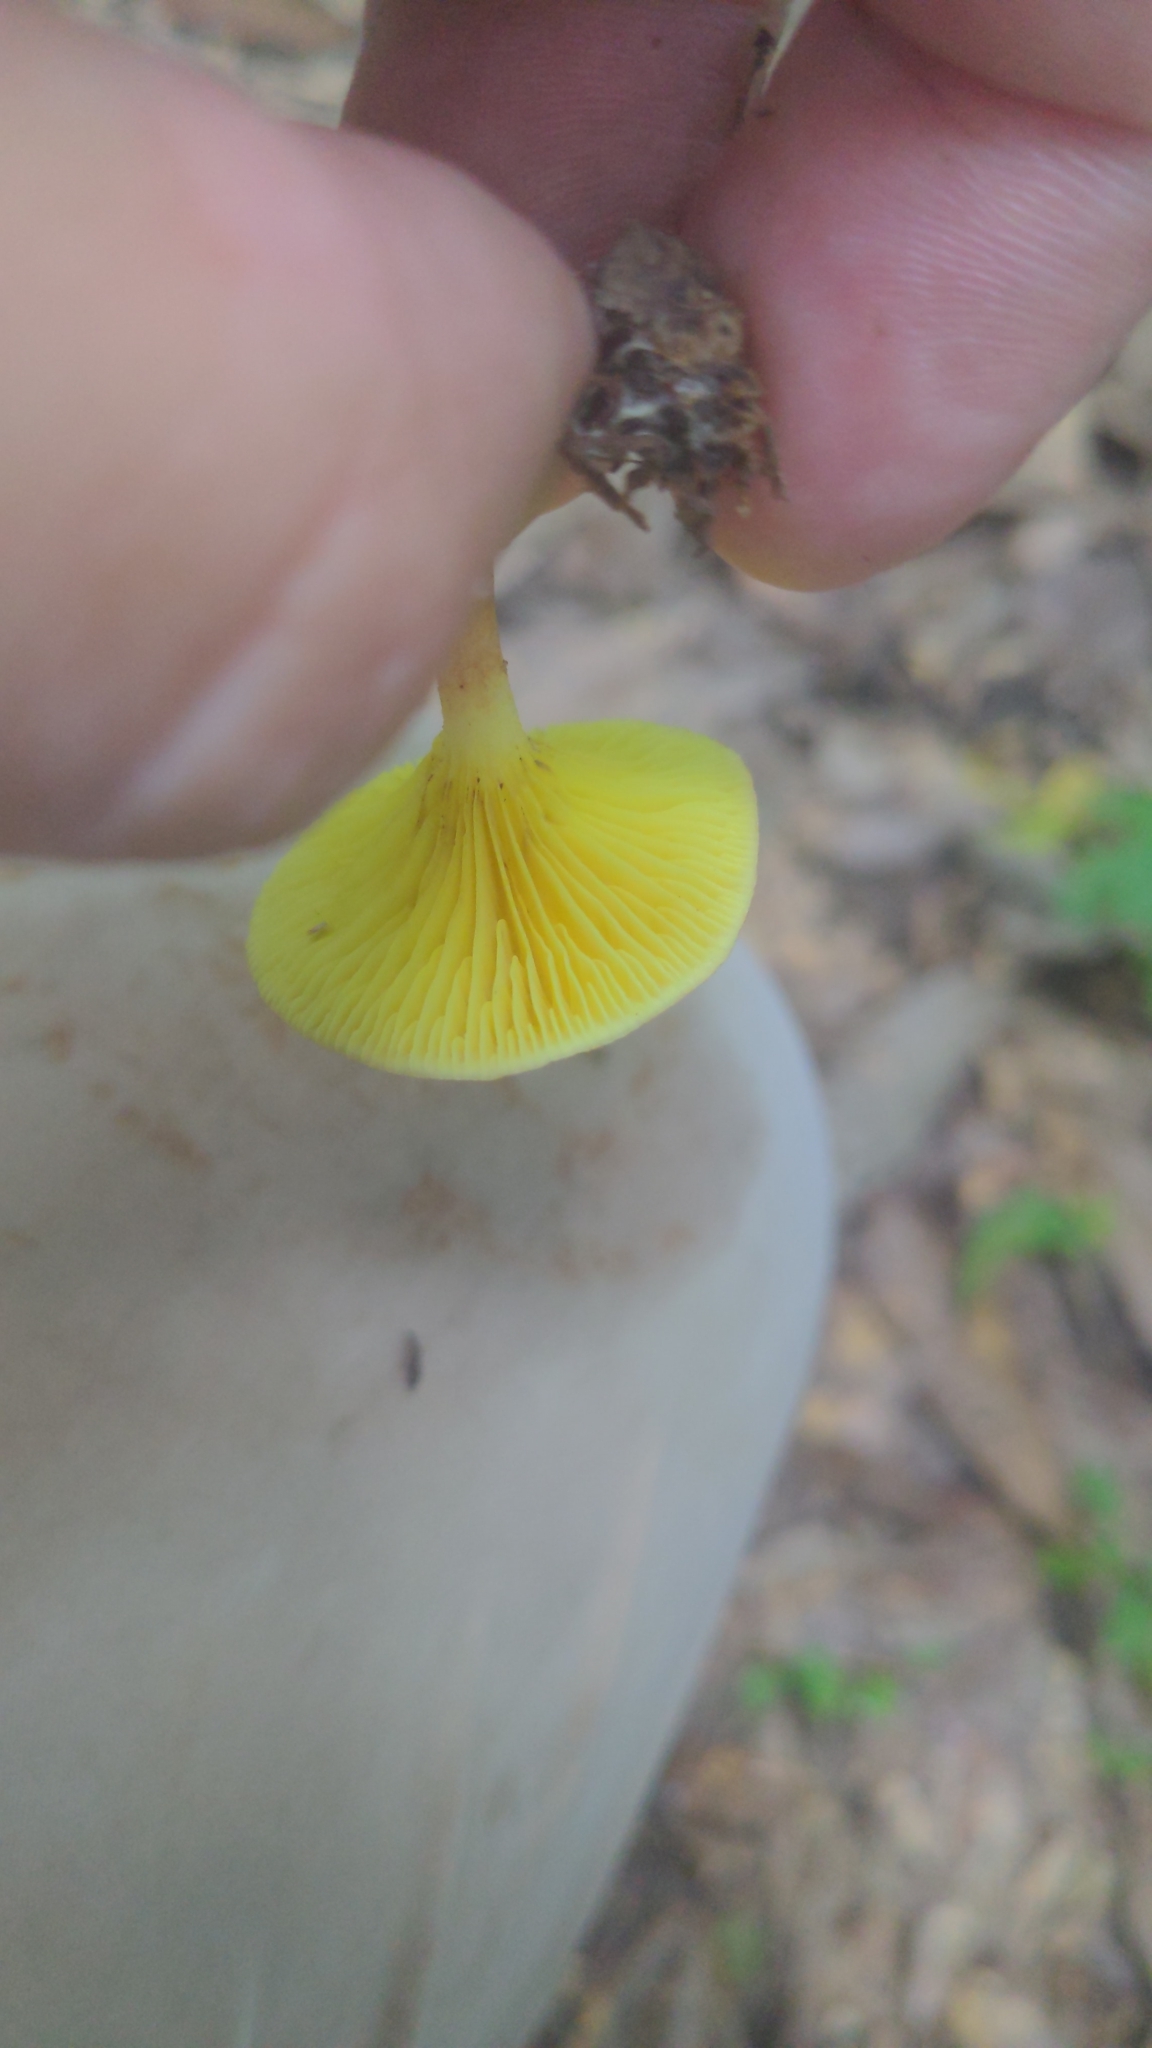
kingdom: Fungi
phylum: Basidiomycota
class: Agaricomycetes
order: Boletales
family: Boletaceae
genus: Phylloporus
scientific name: Phylloporus leucomycelinus
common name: Gilled bolete
